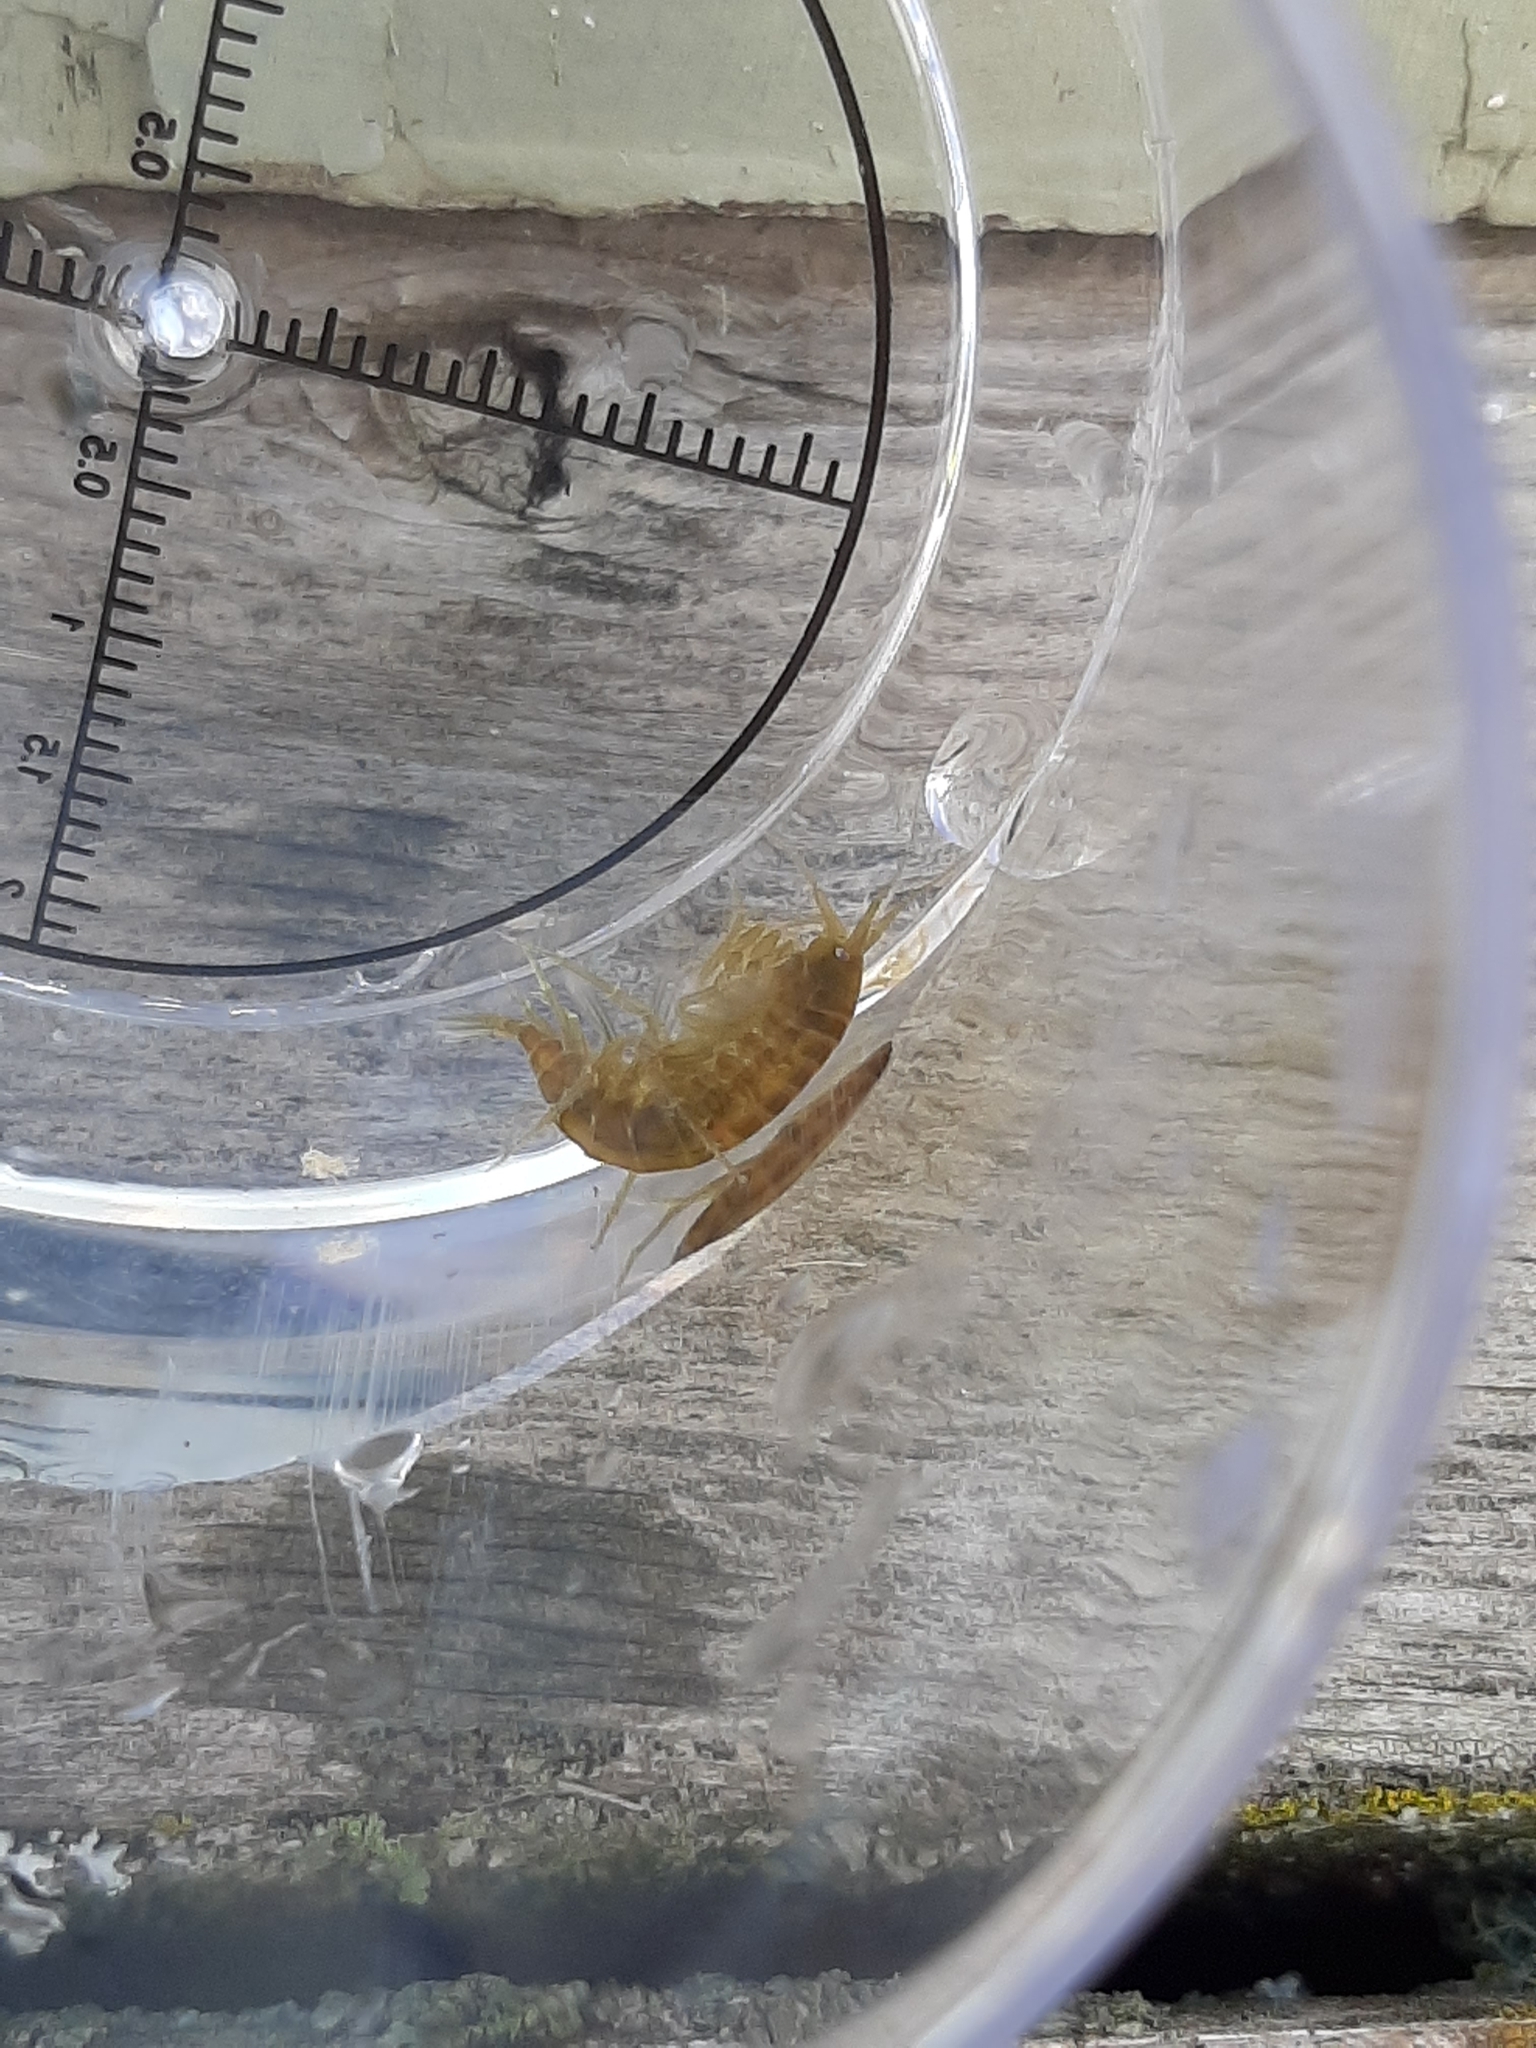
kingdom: Animalia
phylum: Arthropoda
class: Malacostraca
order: Amphipoda
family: Gammaridae
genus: Gammarus
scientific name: Gammarus lacustris
